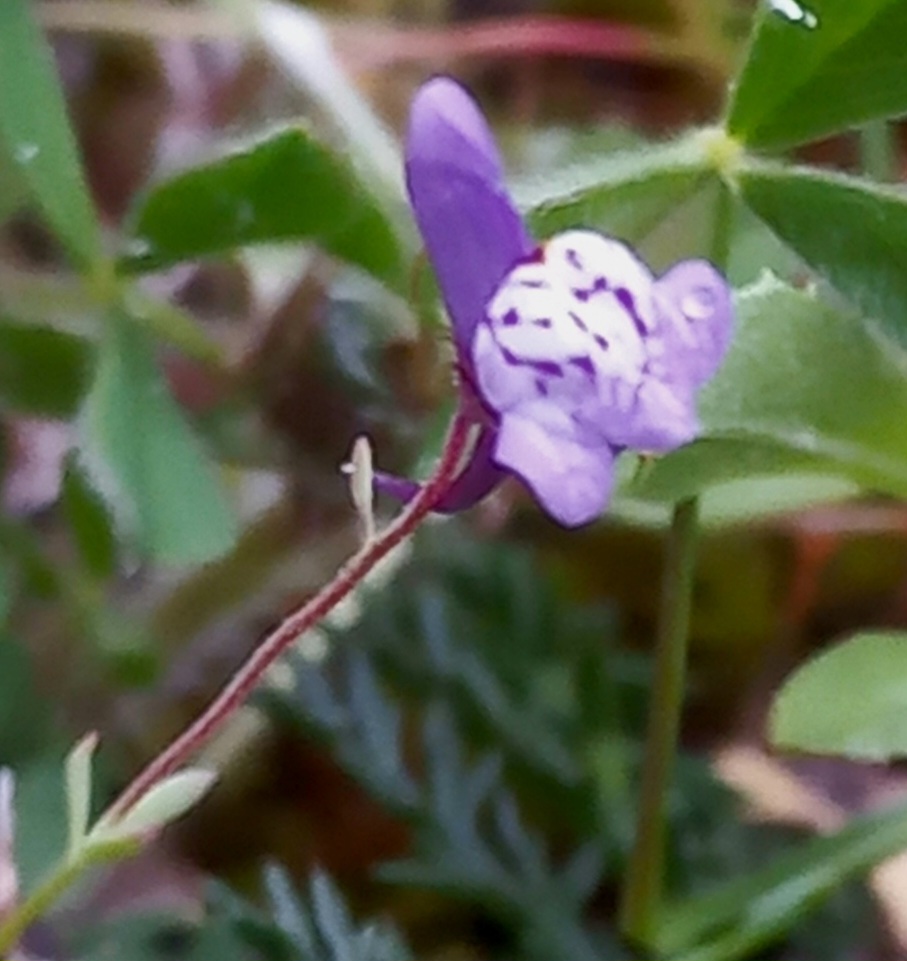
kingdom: Plantae
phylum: Tracheophyta
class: Magnoliopsida
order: Lamiales
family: Plantaginaceae
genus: Linaria
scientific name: Linaria amethystea
